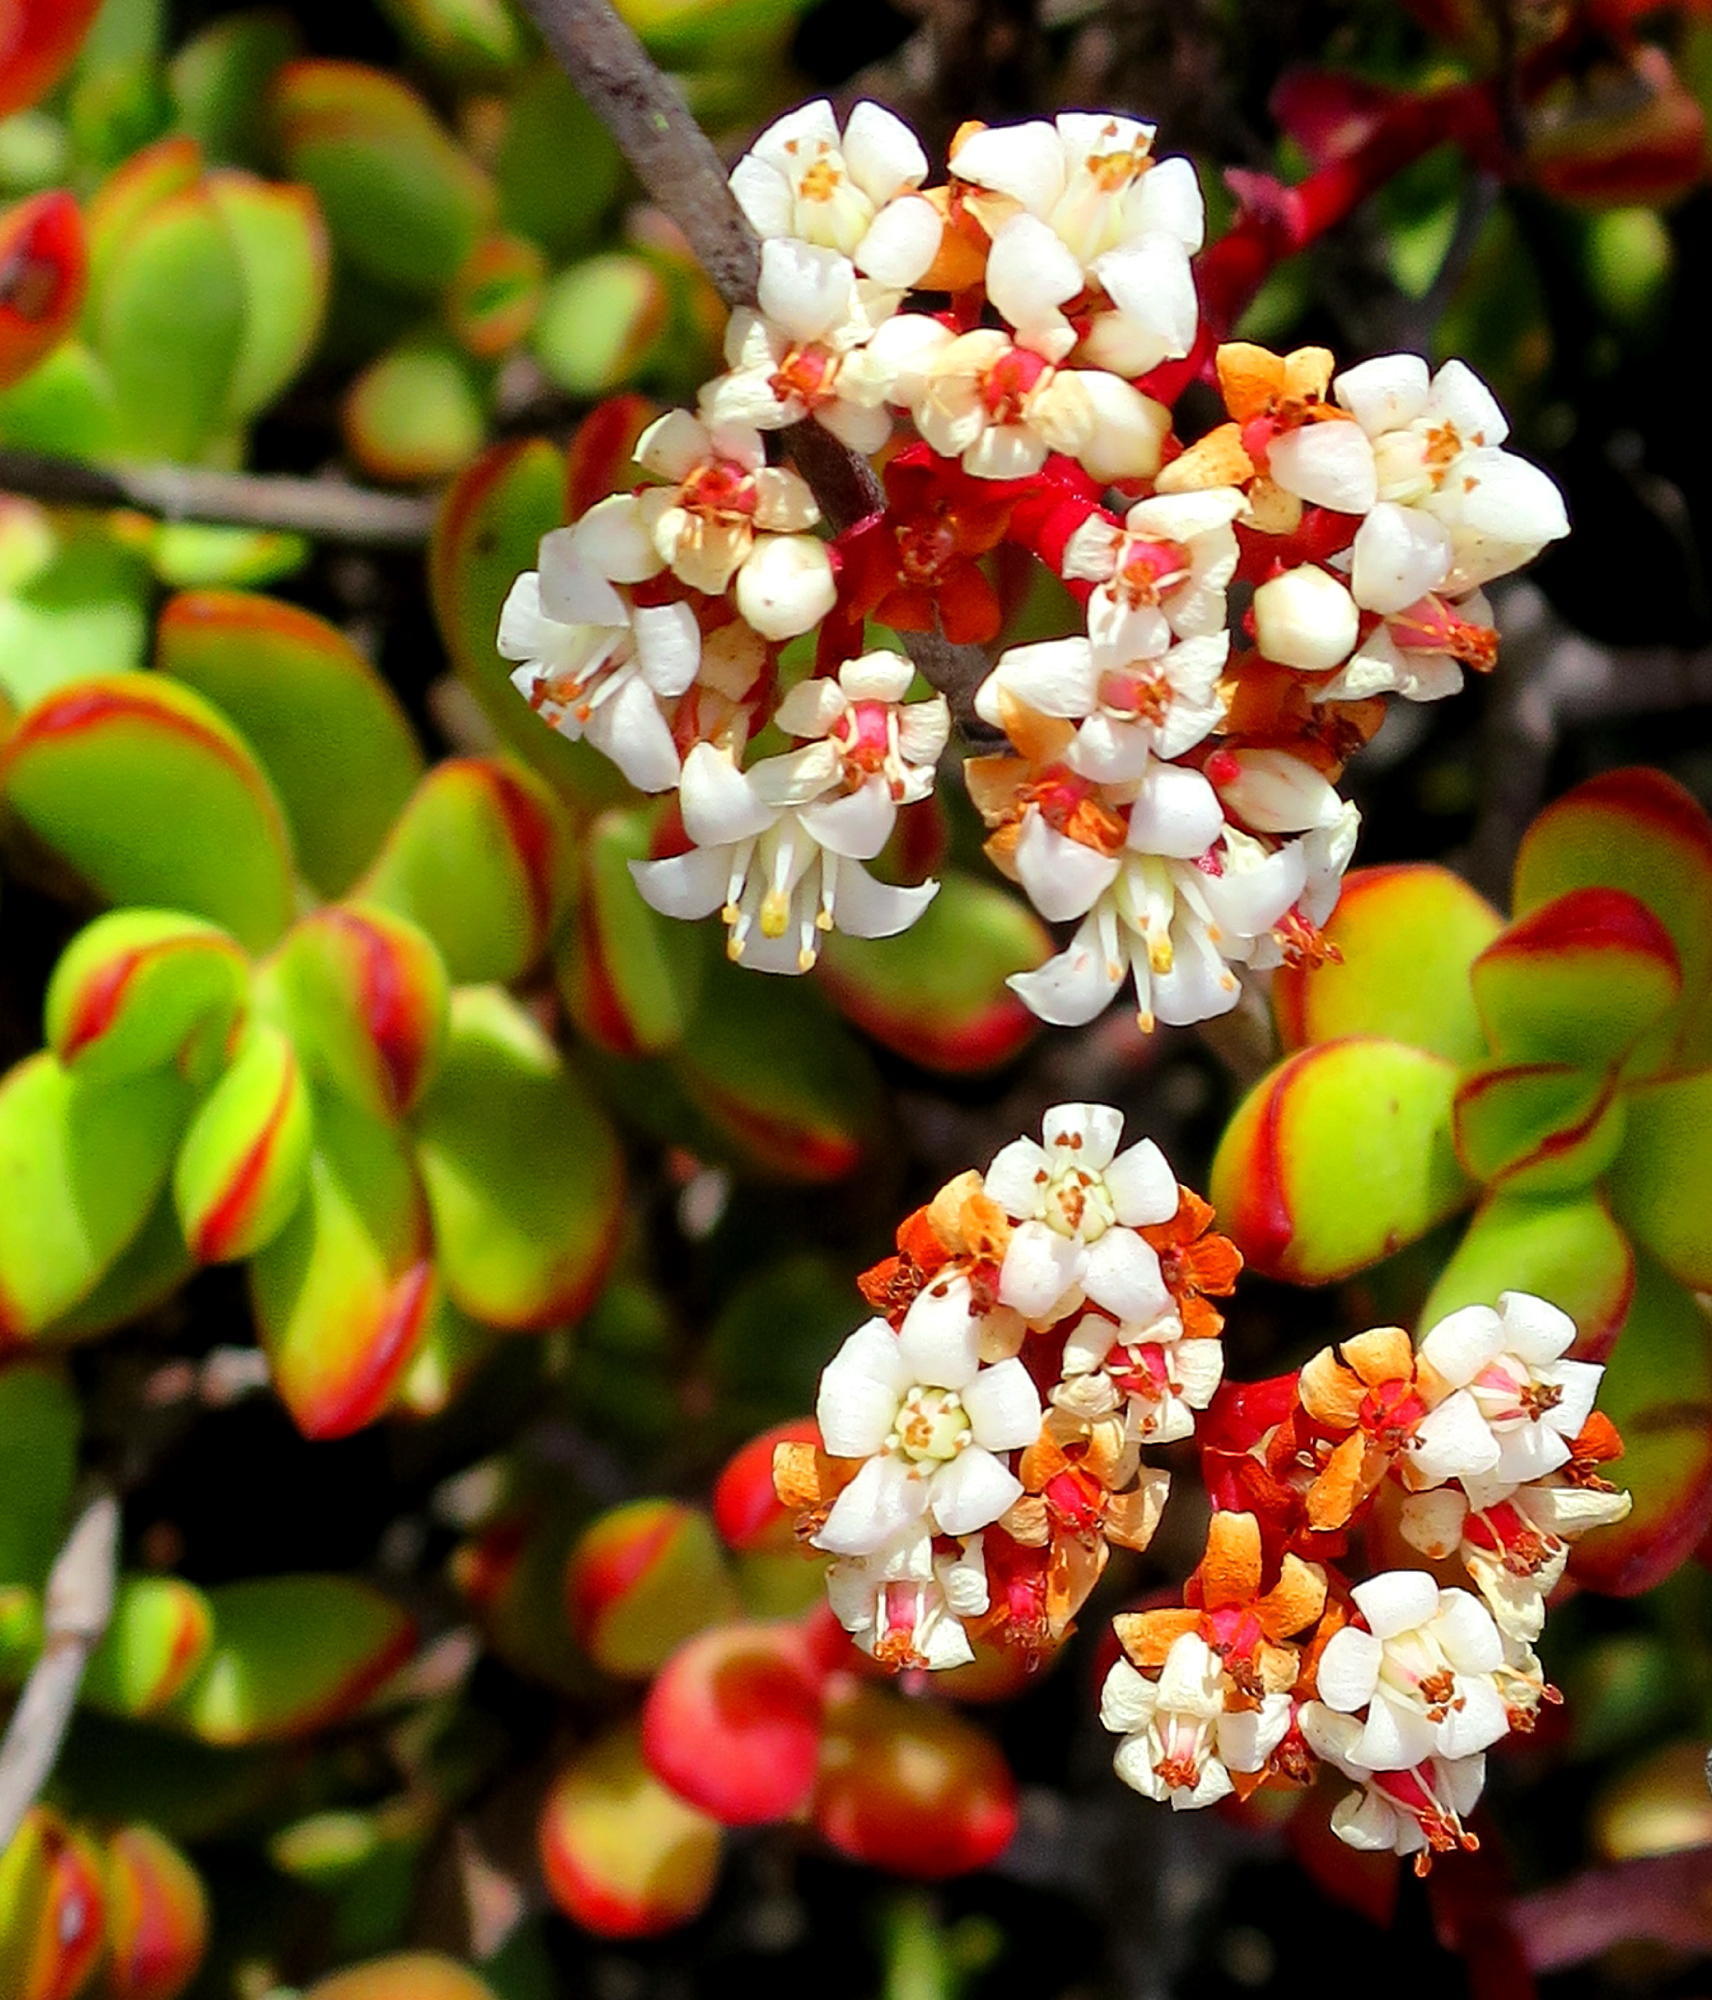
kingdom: Plantae
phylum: Tracheophyta
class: Magnoliopsida
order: Saxifragales
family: Crassulaceae
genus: Crassula
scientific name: Crassula rubricaulis
